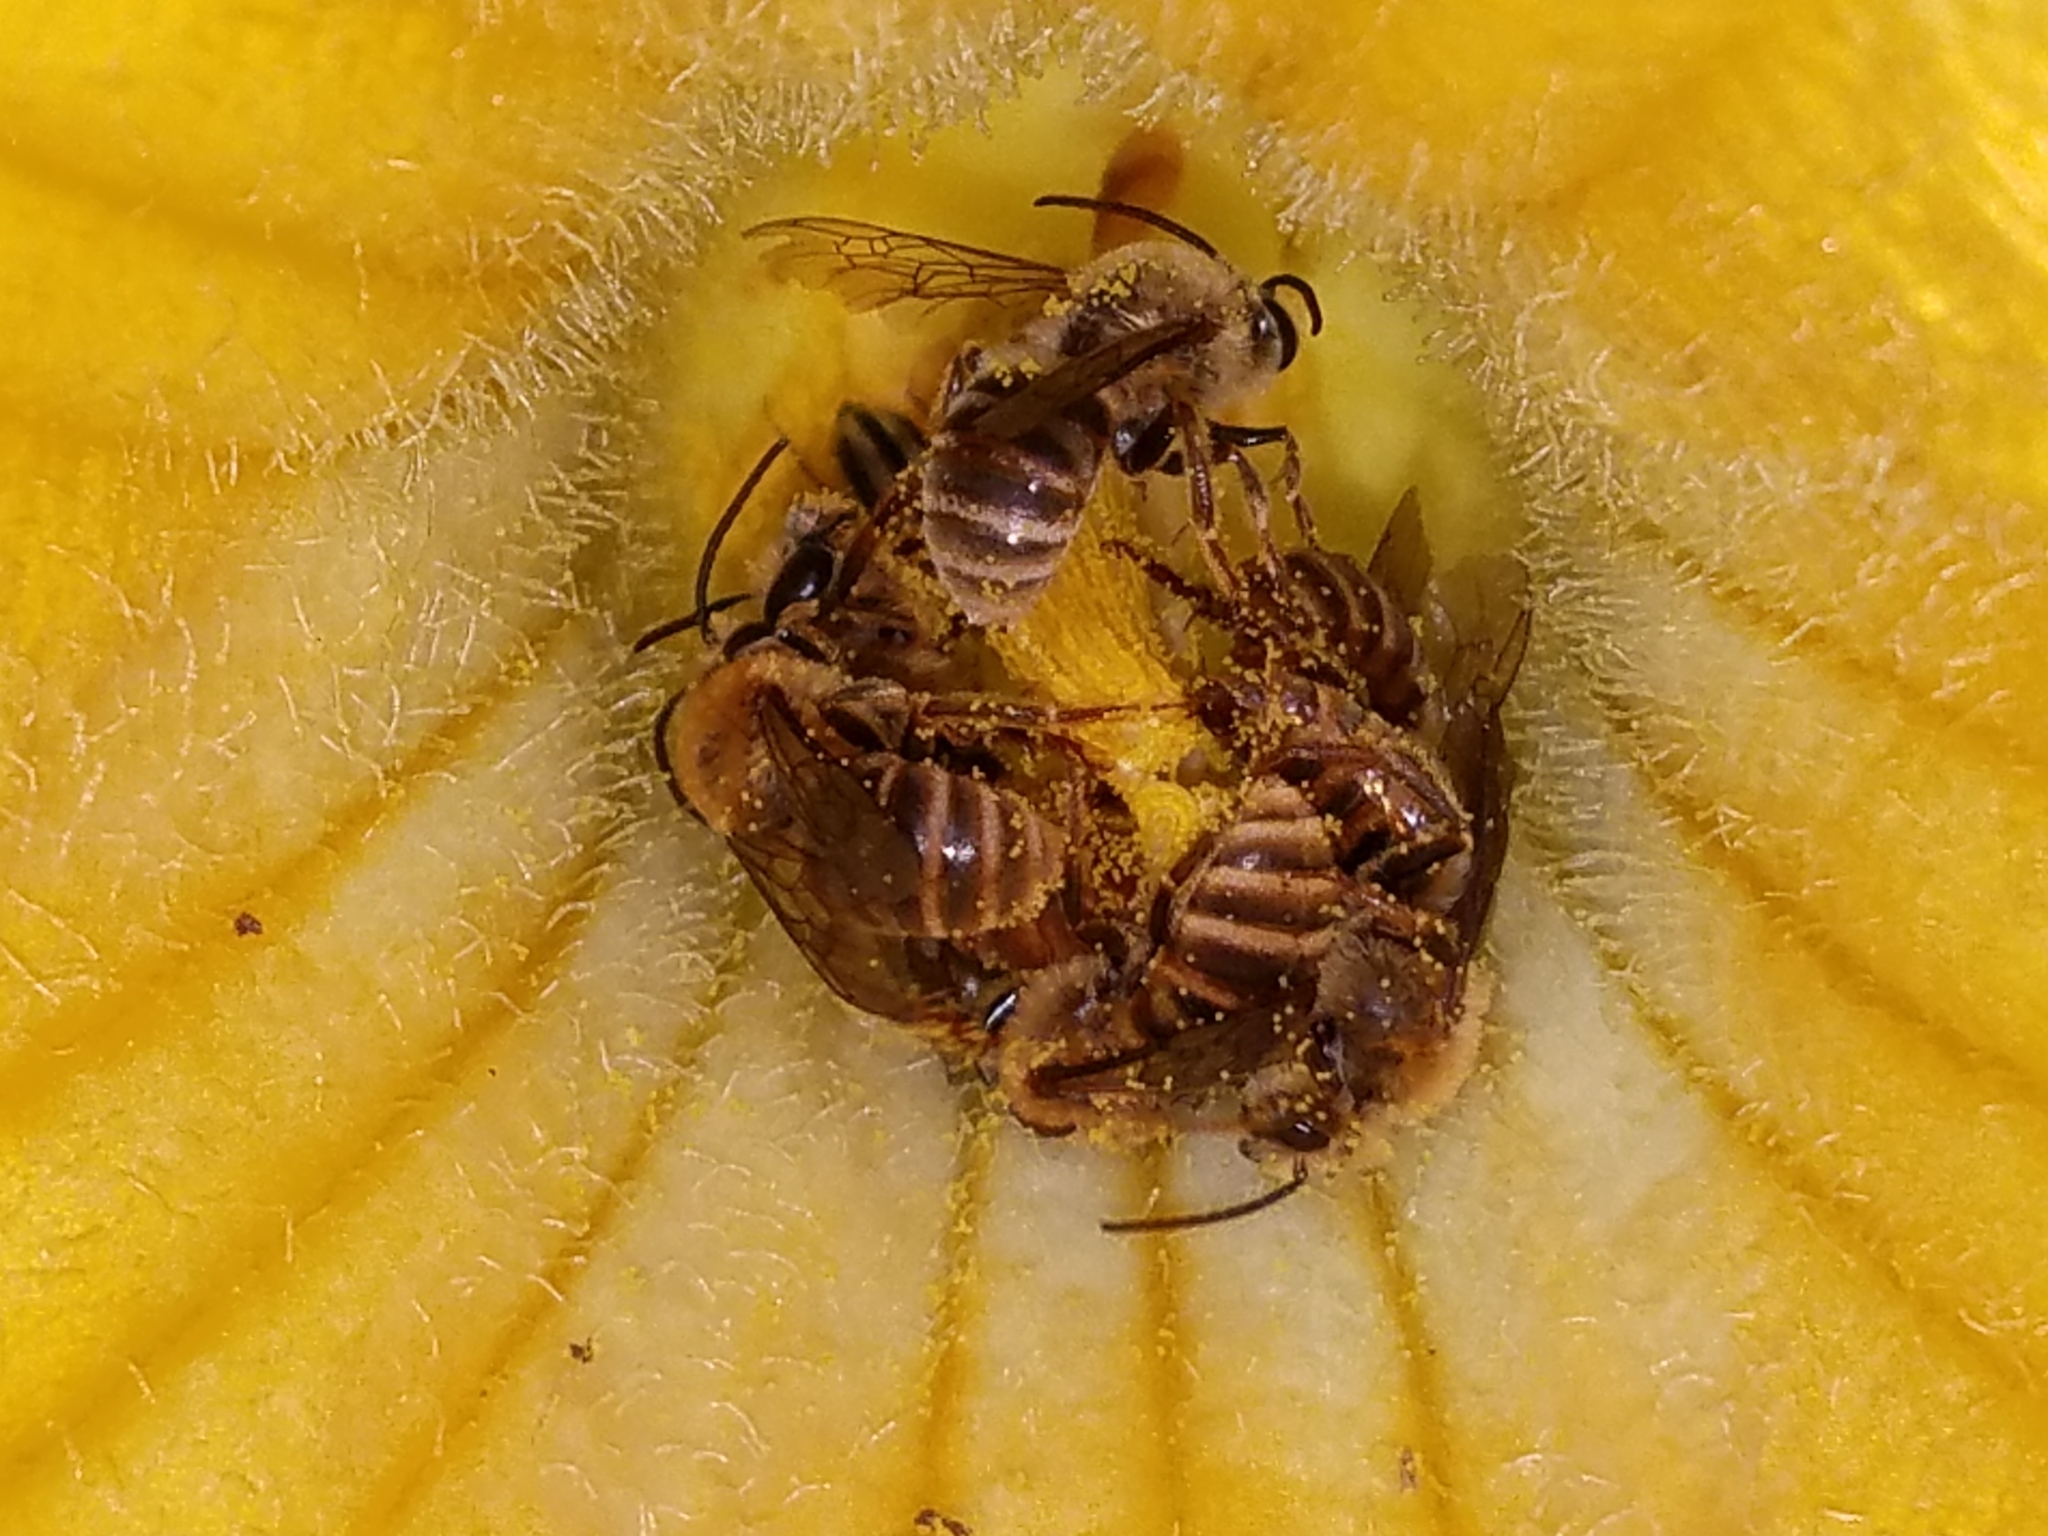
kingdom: Animalia
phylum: Arthropoda
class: Insecta
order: Hymenoptera
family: Apidae
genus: Peponapis
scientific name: Peponapis pruinosa
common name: Pruinose squash bee
